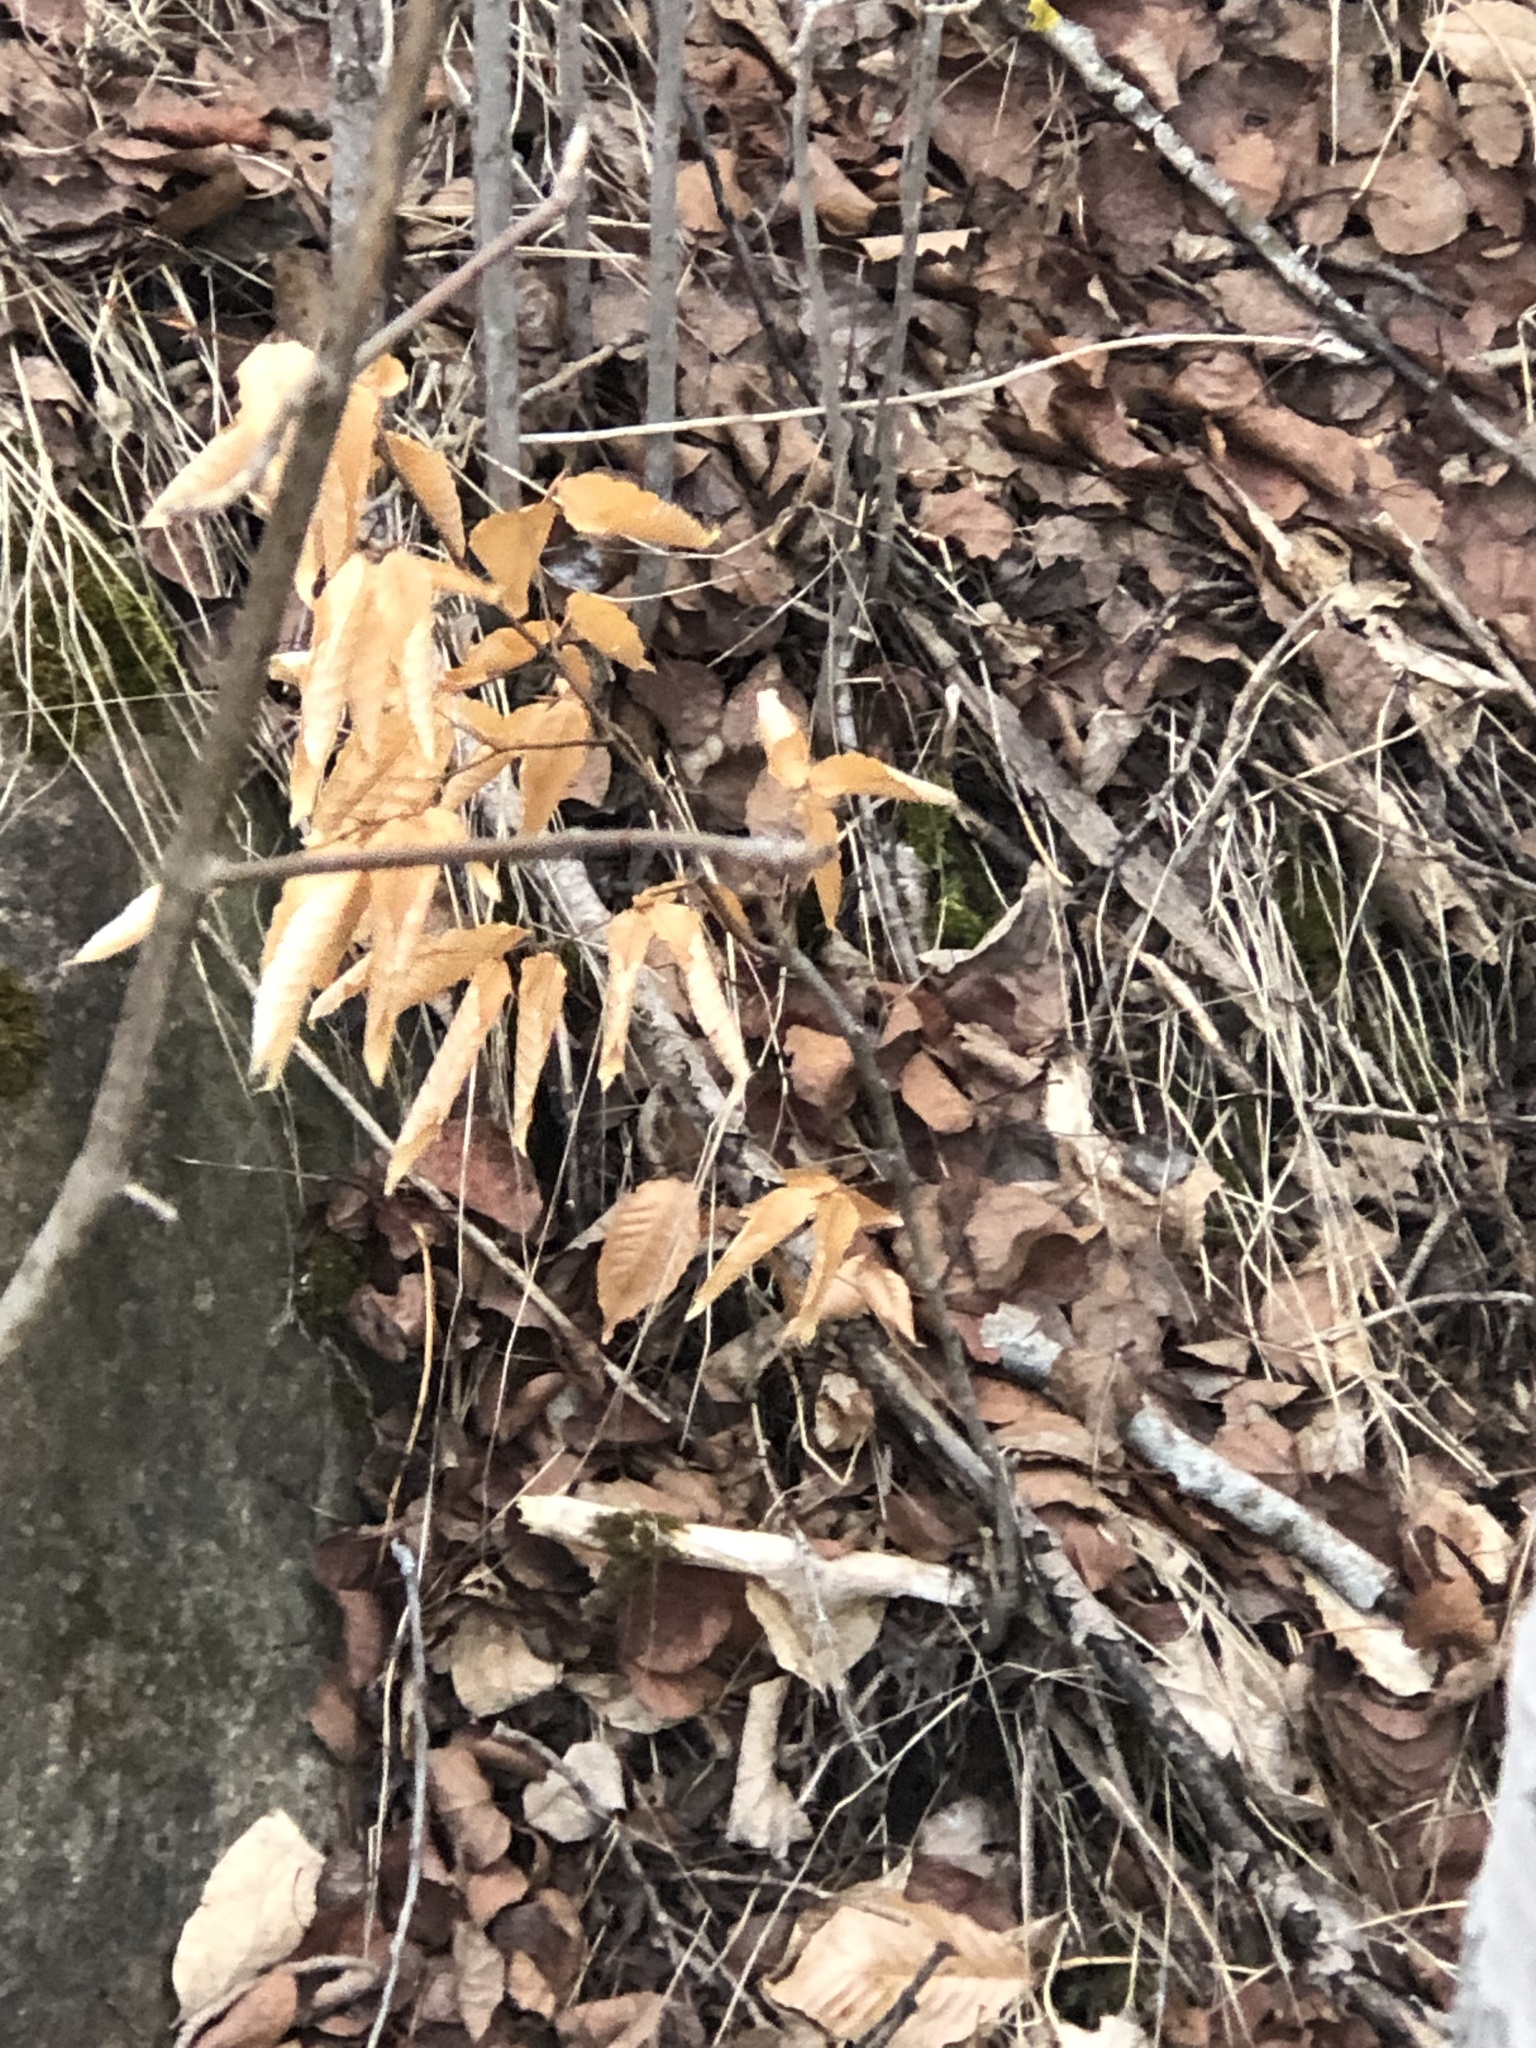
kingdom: Plantae
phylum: Tracheophyta
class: Magnoliopsida
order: Fagales
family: Fagaceae
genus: Fagus
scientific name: Fagus grandifolia
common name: American beech
